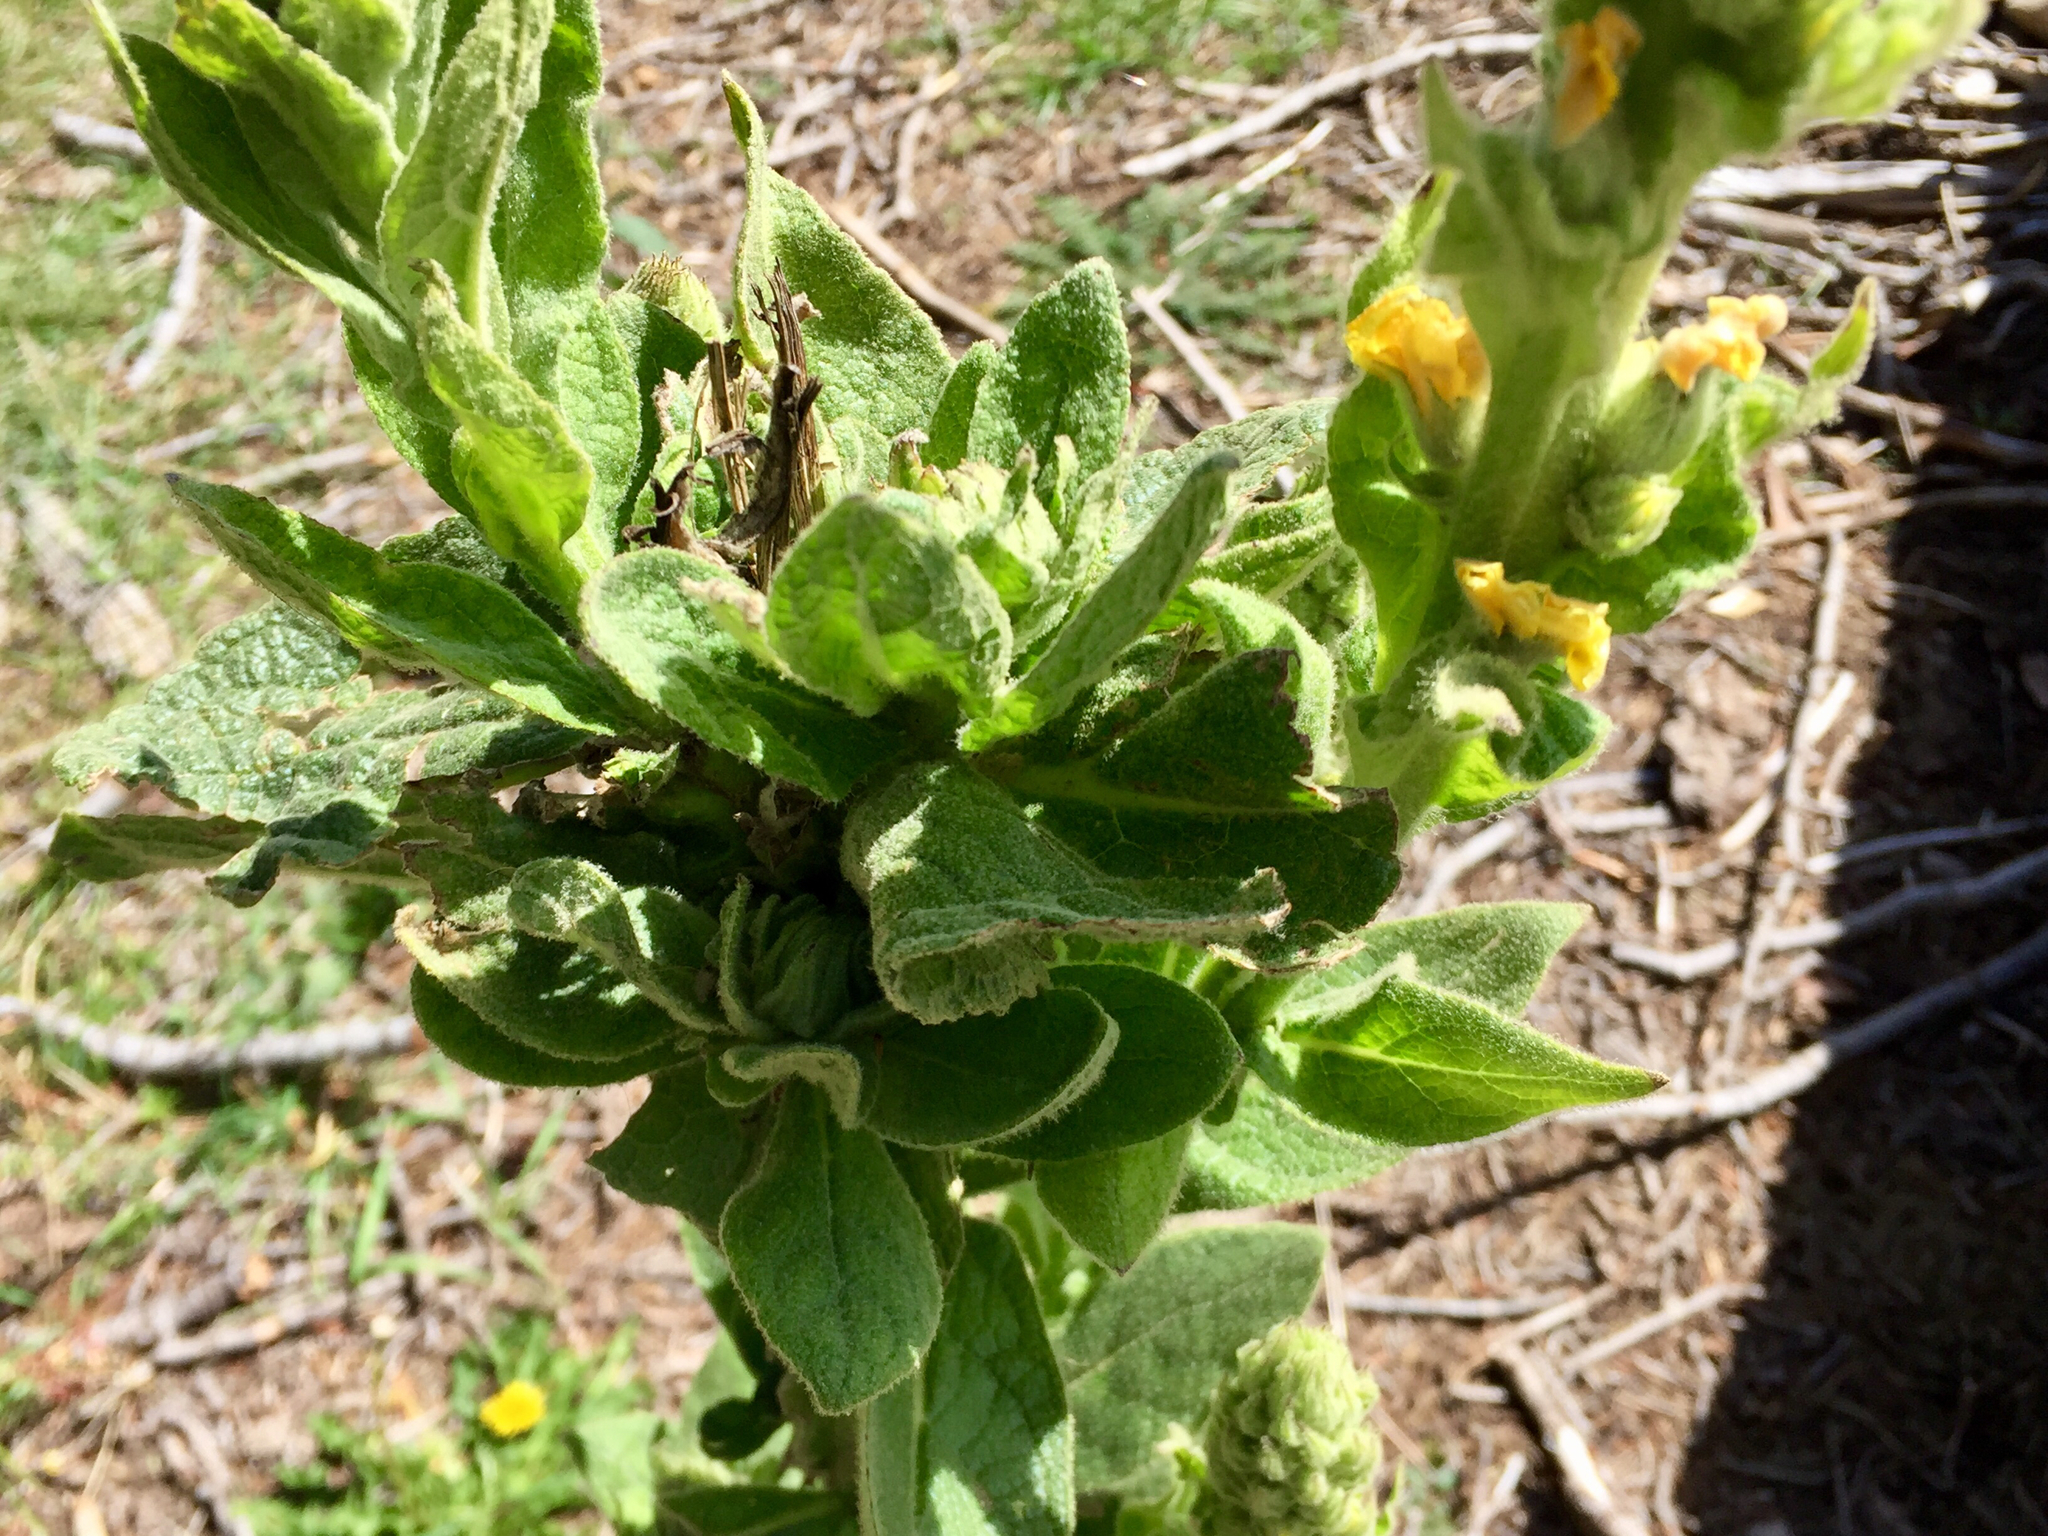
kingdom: Plantae
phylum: Tracheophyta
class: Magnoliopsida
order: Lamiales
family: Scrophulariaceae
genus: Verbascum
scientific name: Verbascum thapsus
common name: Common mullein
